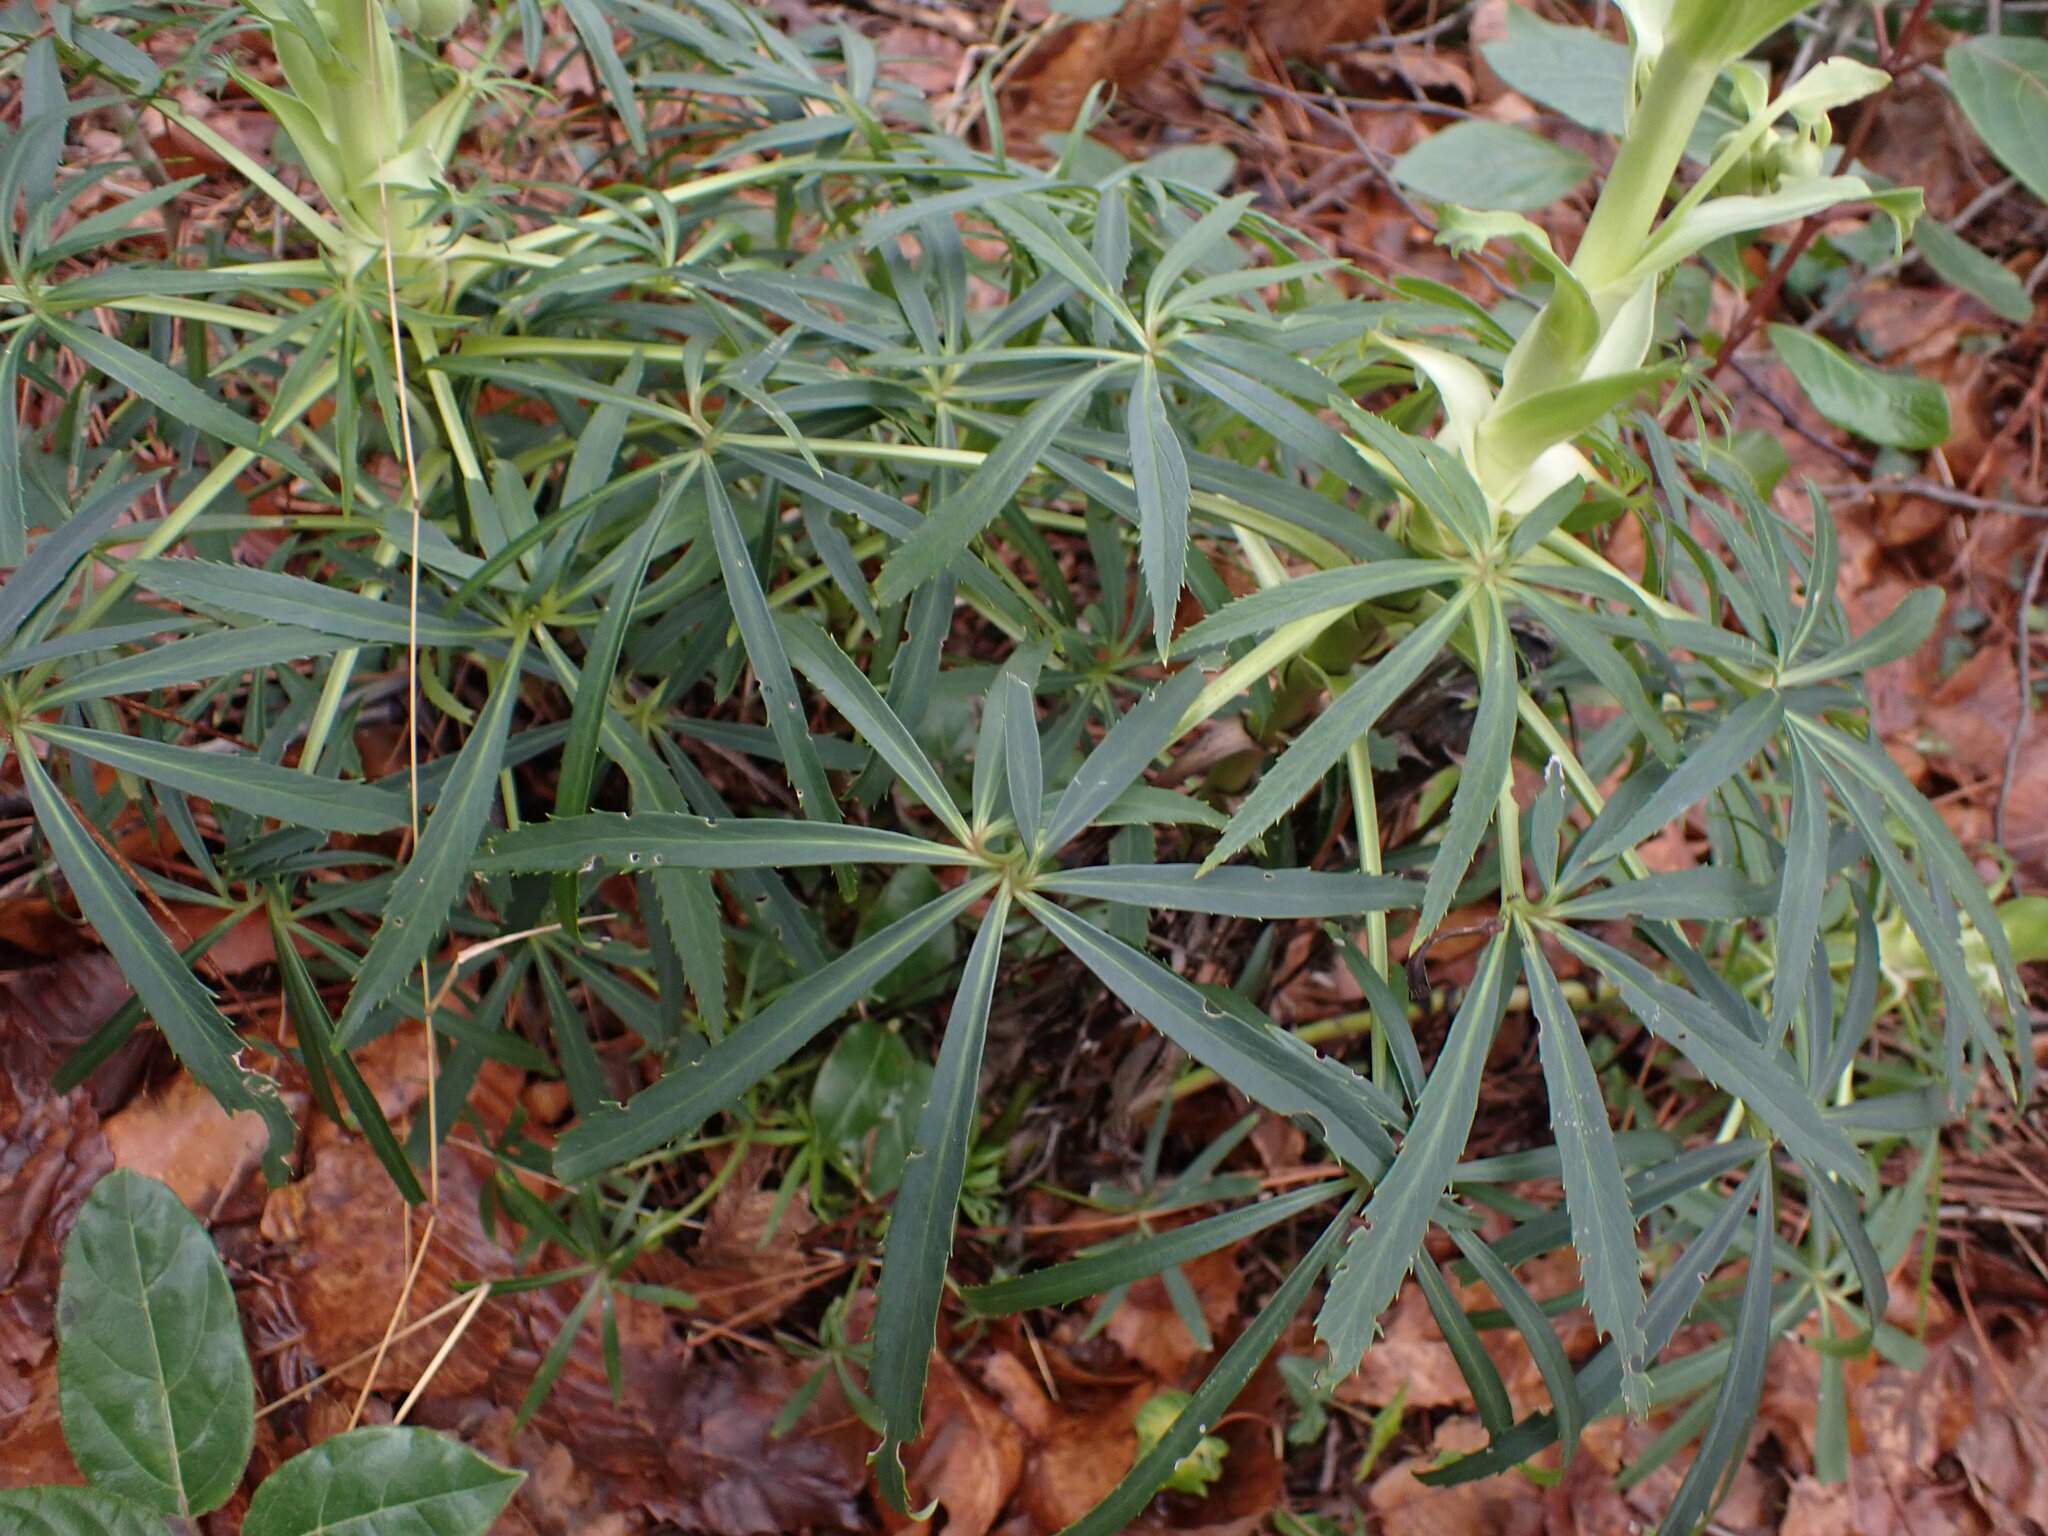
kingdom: Plantae
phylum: Tracheophyta
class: Magnoliopsida
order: Ranunculales
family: Ranunculaceae
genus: Helleborus
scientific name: Helleborus foetidus
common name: Stinking hellebore
